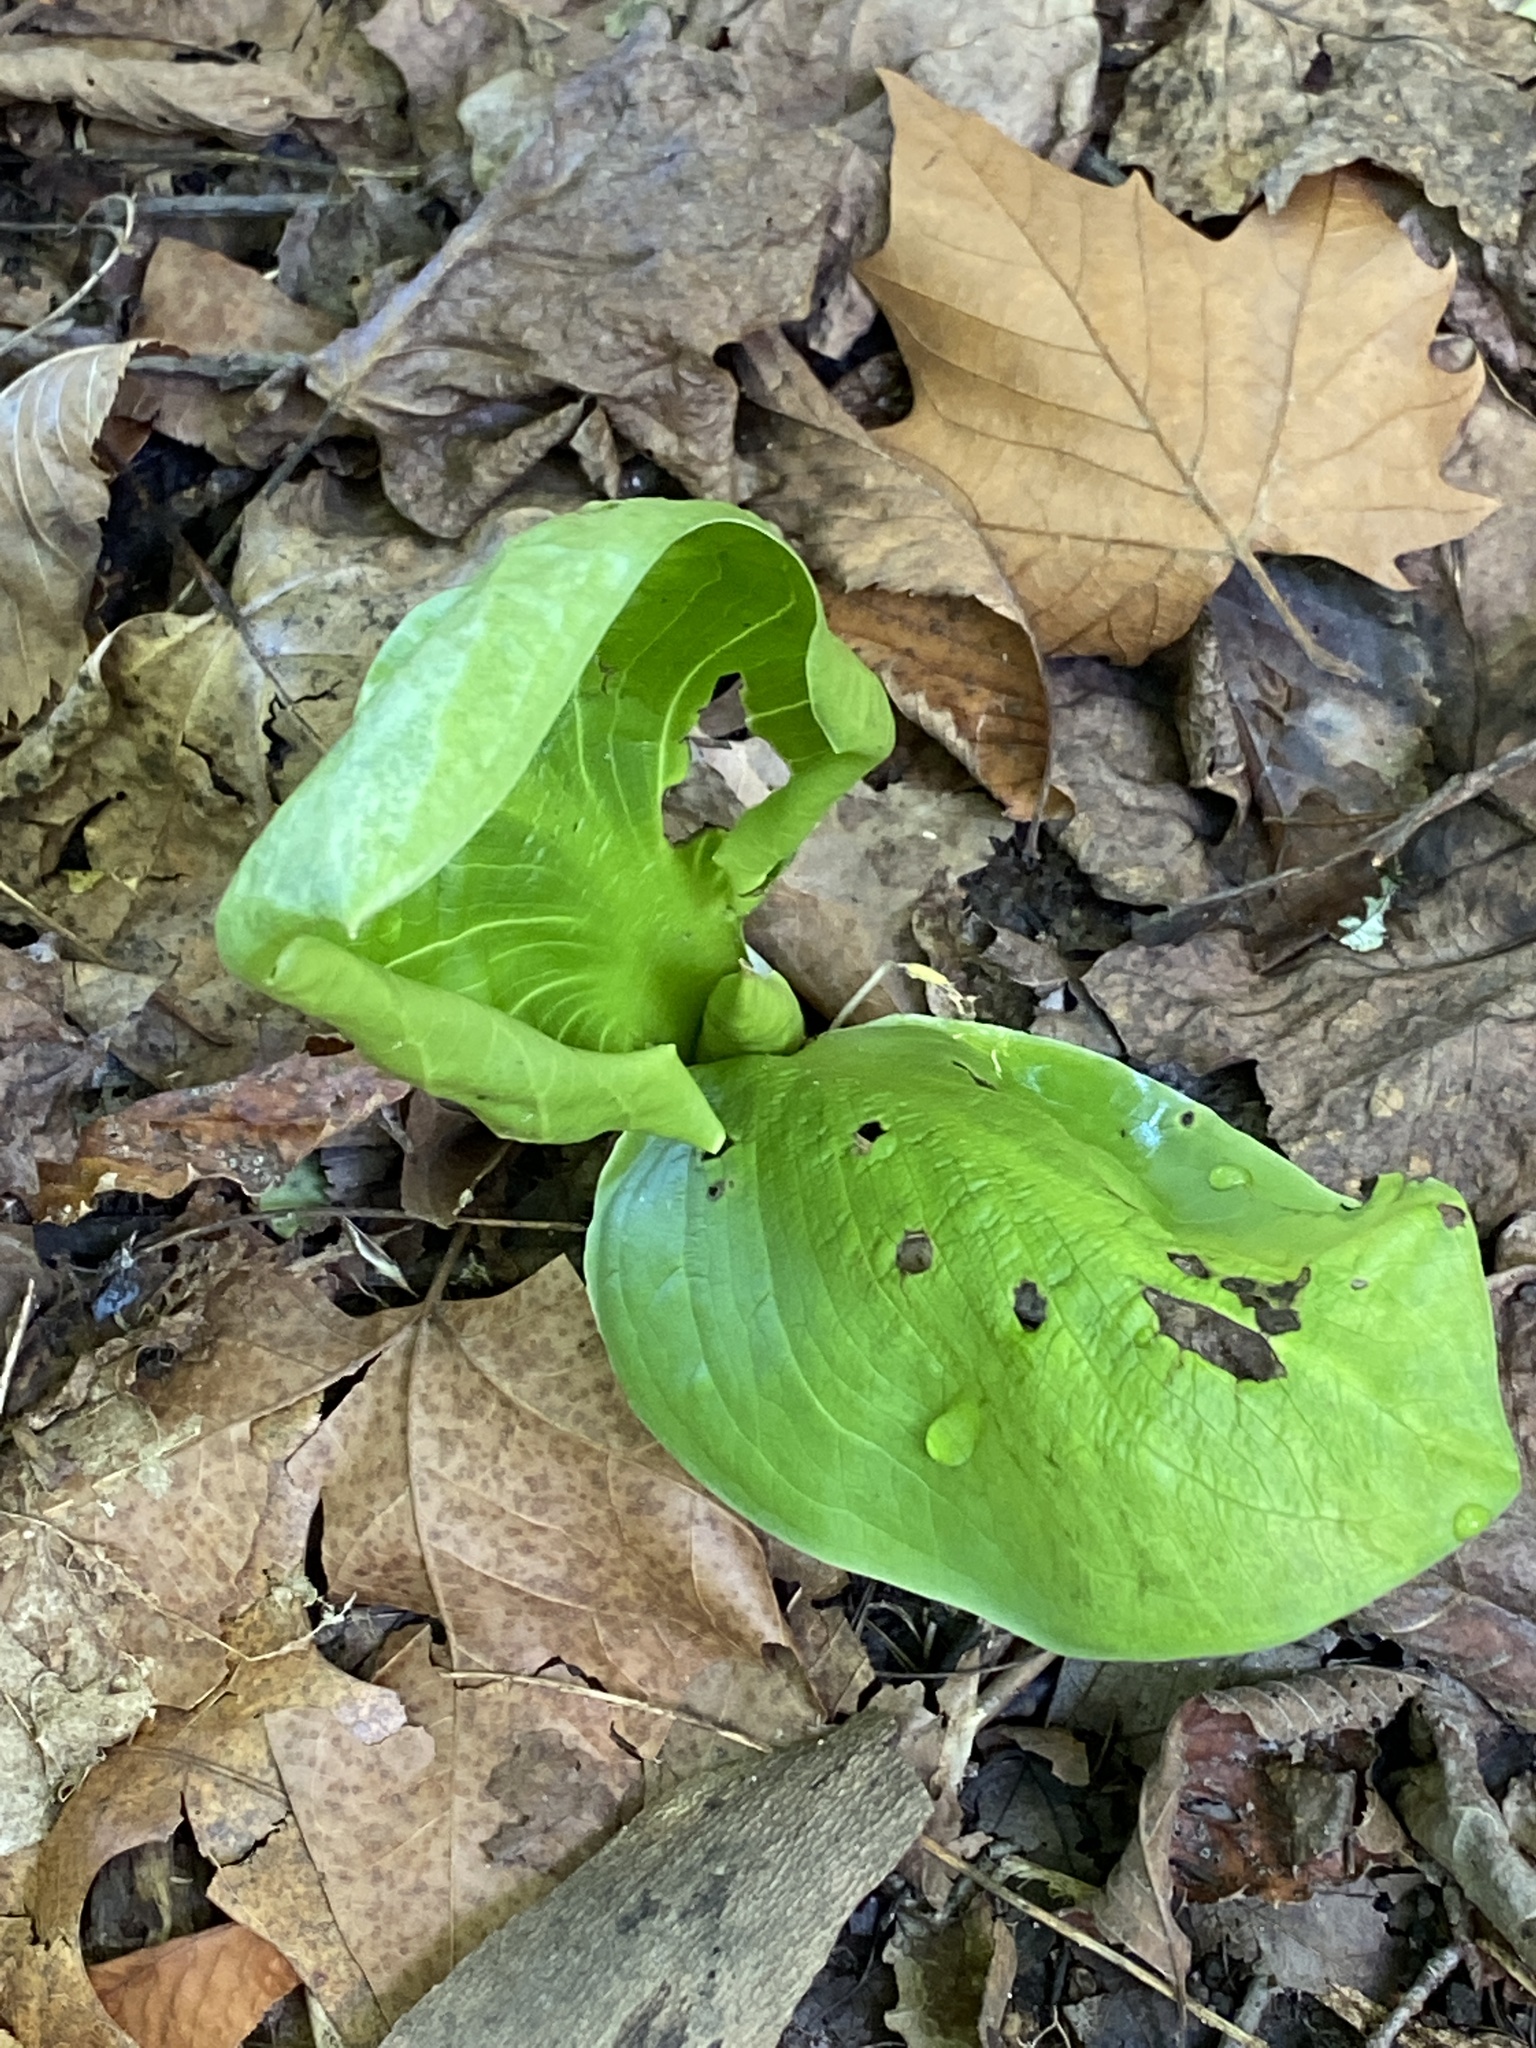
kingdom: Plantae
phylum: Tracheophyta
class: Liliopsida
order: Alismatales
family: Araceae
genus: Symplocarpus
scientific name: Symplocarpus foetidus
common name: Eastern skunk cabbage
